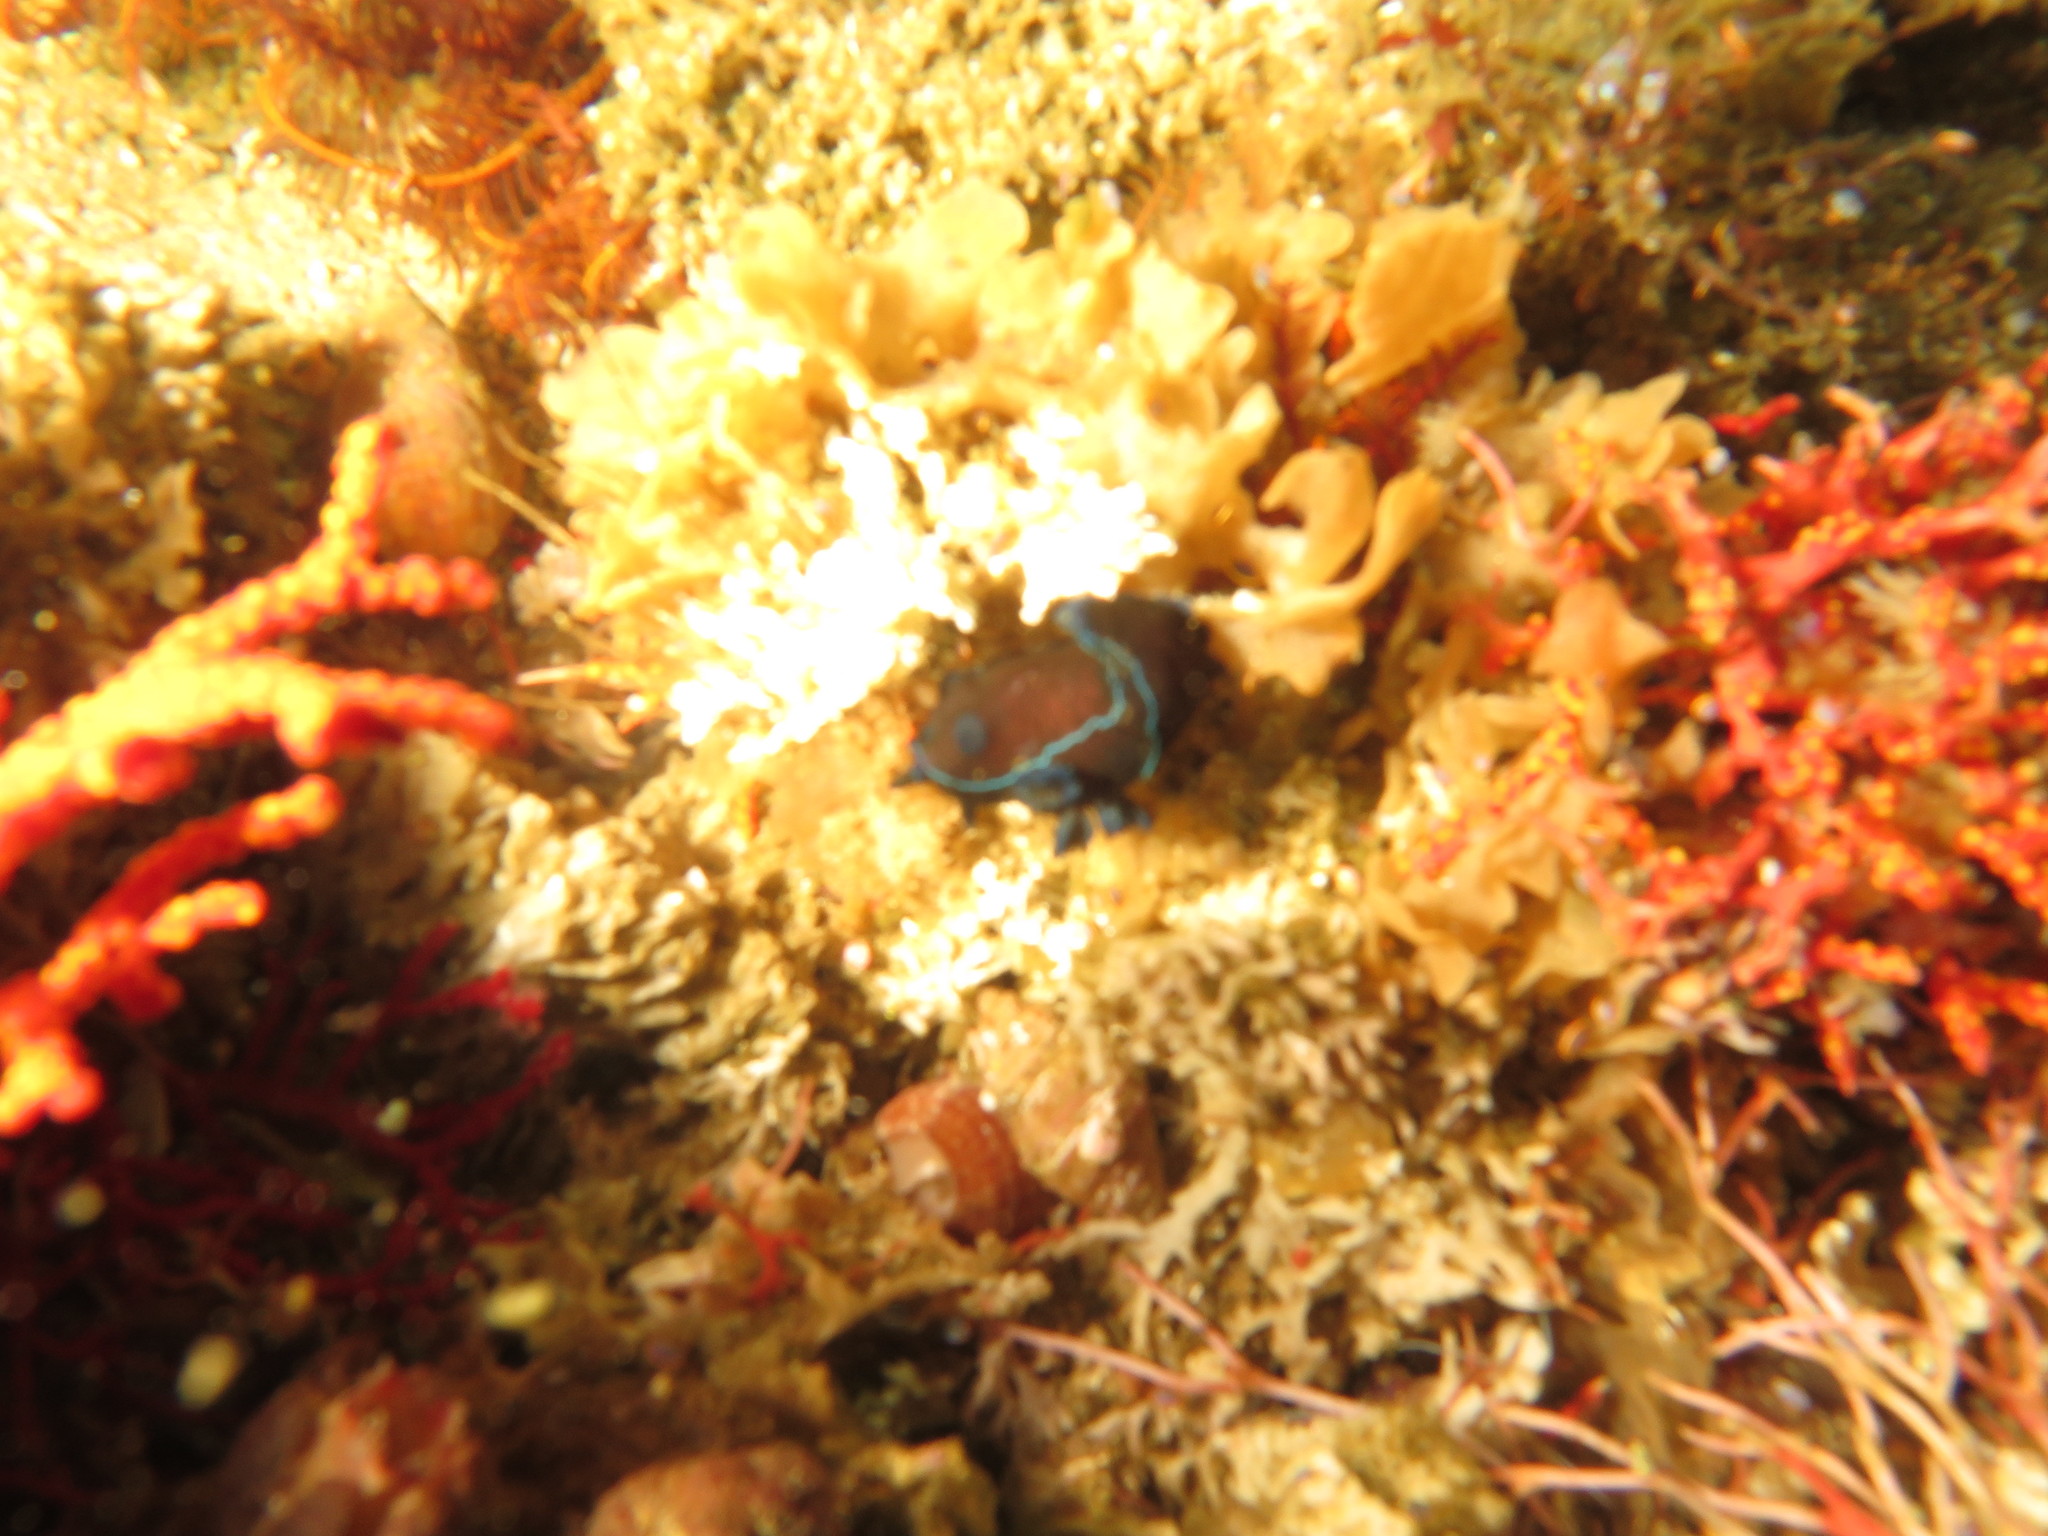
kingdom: Animalia
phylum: Mollusca
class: Gastropoda
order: Nudibranchia
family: Polyceridae
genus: Tambja
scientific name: Tambja capensis
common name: Black nudibranch
